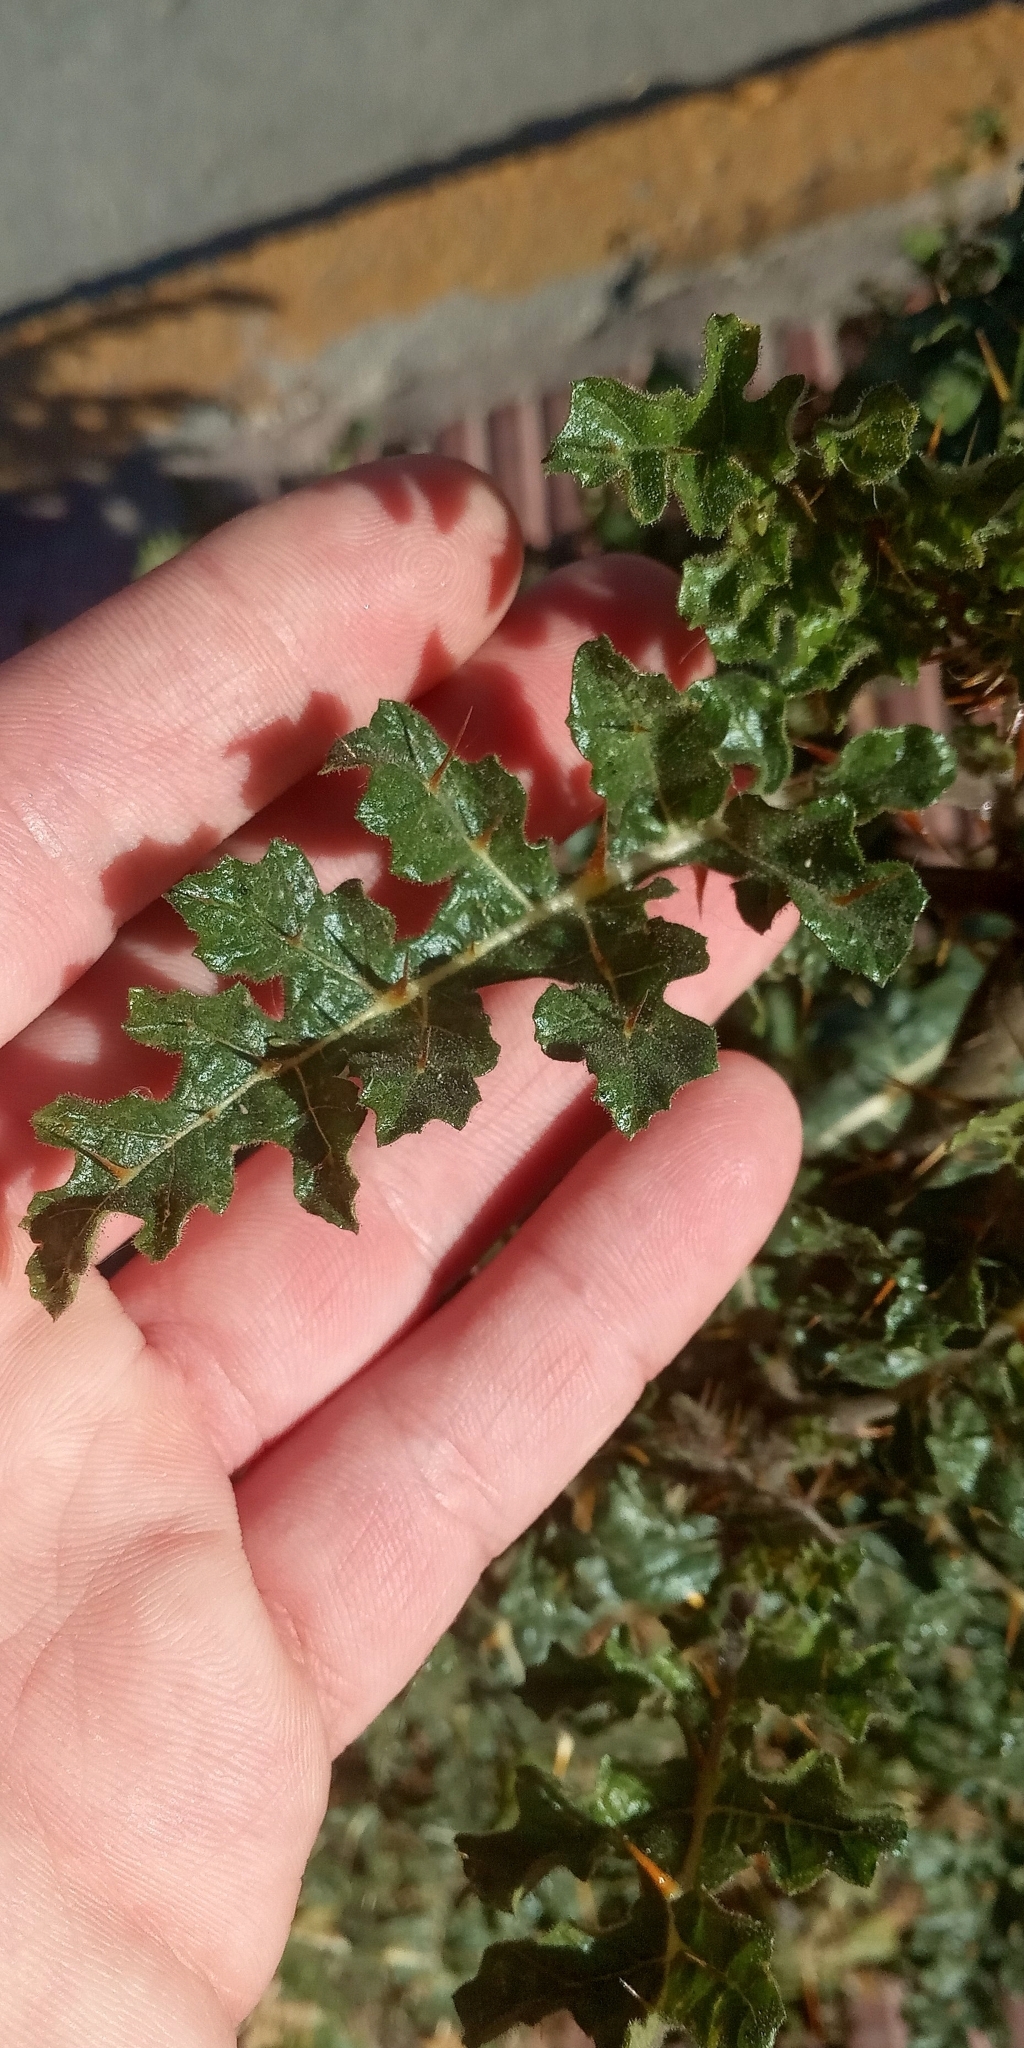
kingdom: Plantae
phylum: Tracheophyta
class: Magnoliopsida
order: Solanales
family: Solanaceae
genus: Solanum
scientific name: Solanum sisymbriifolium
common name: Red buffalo-bur
